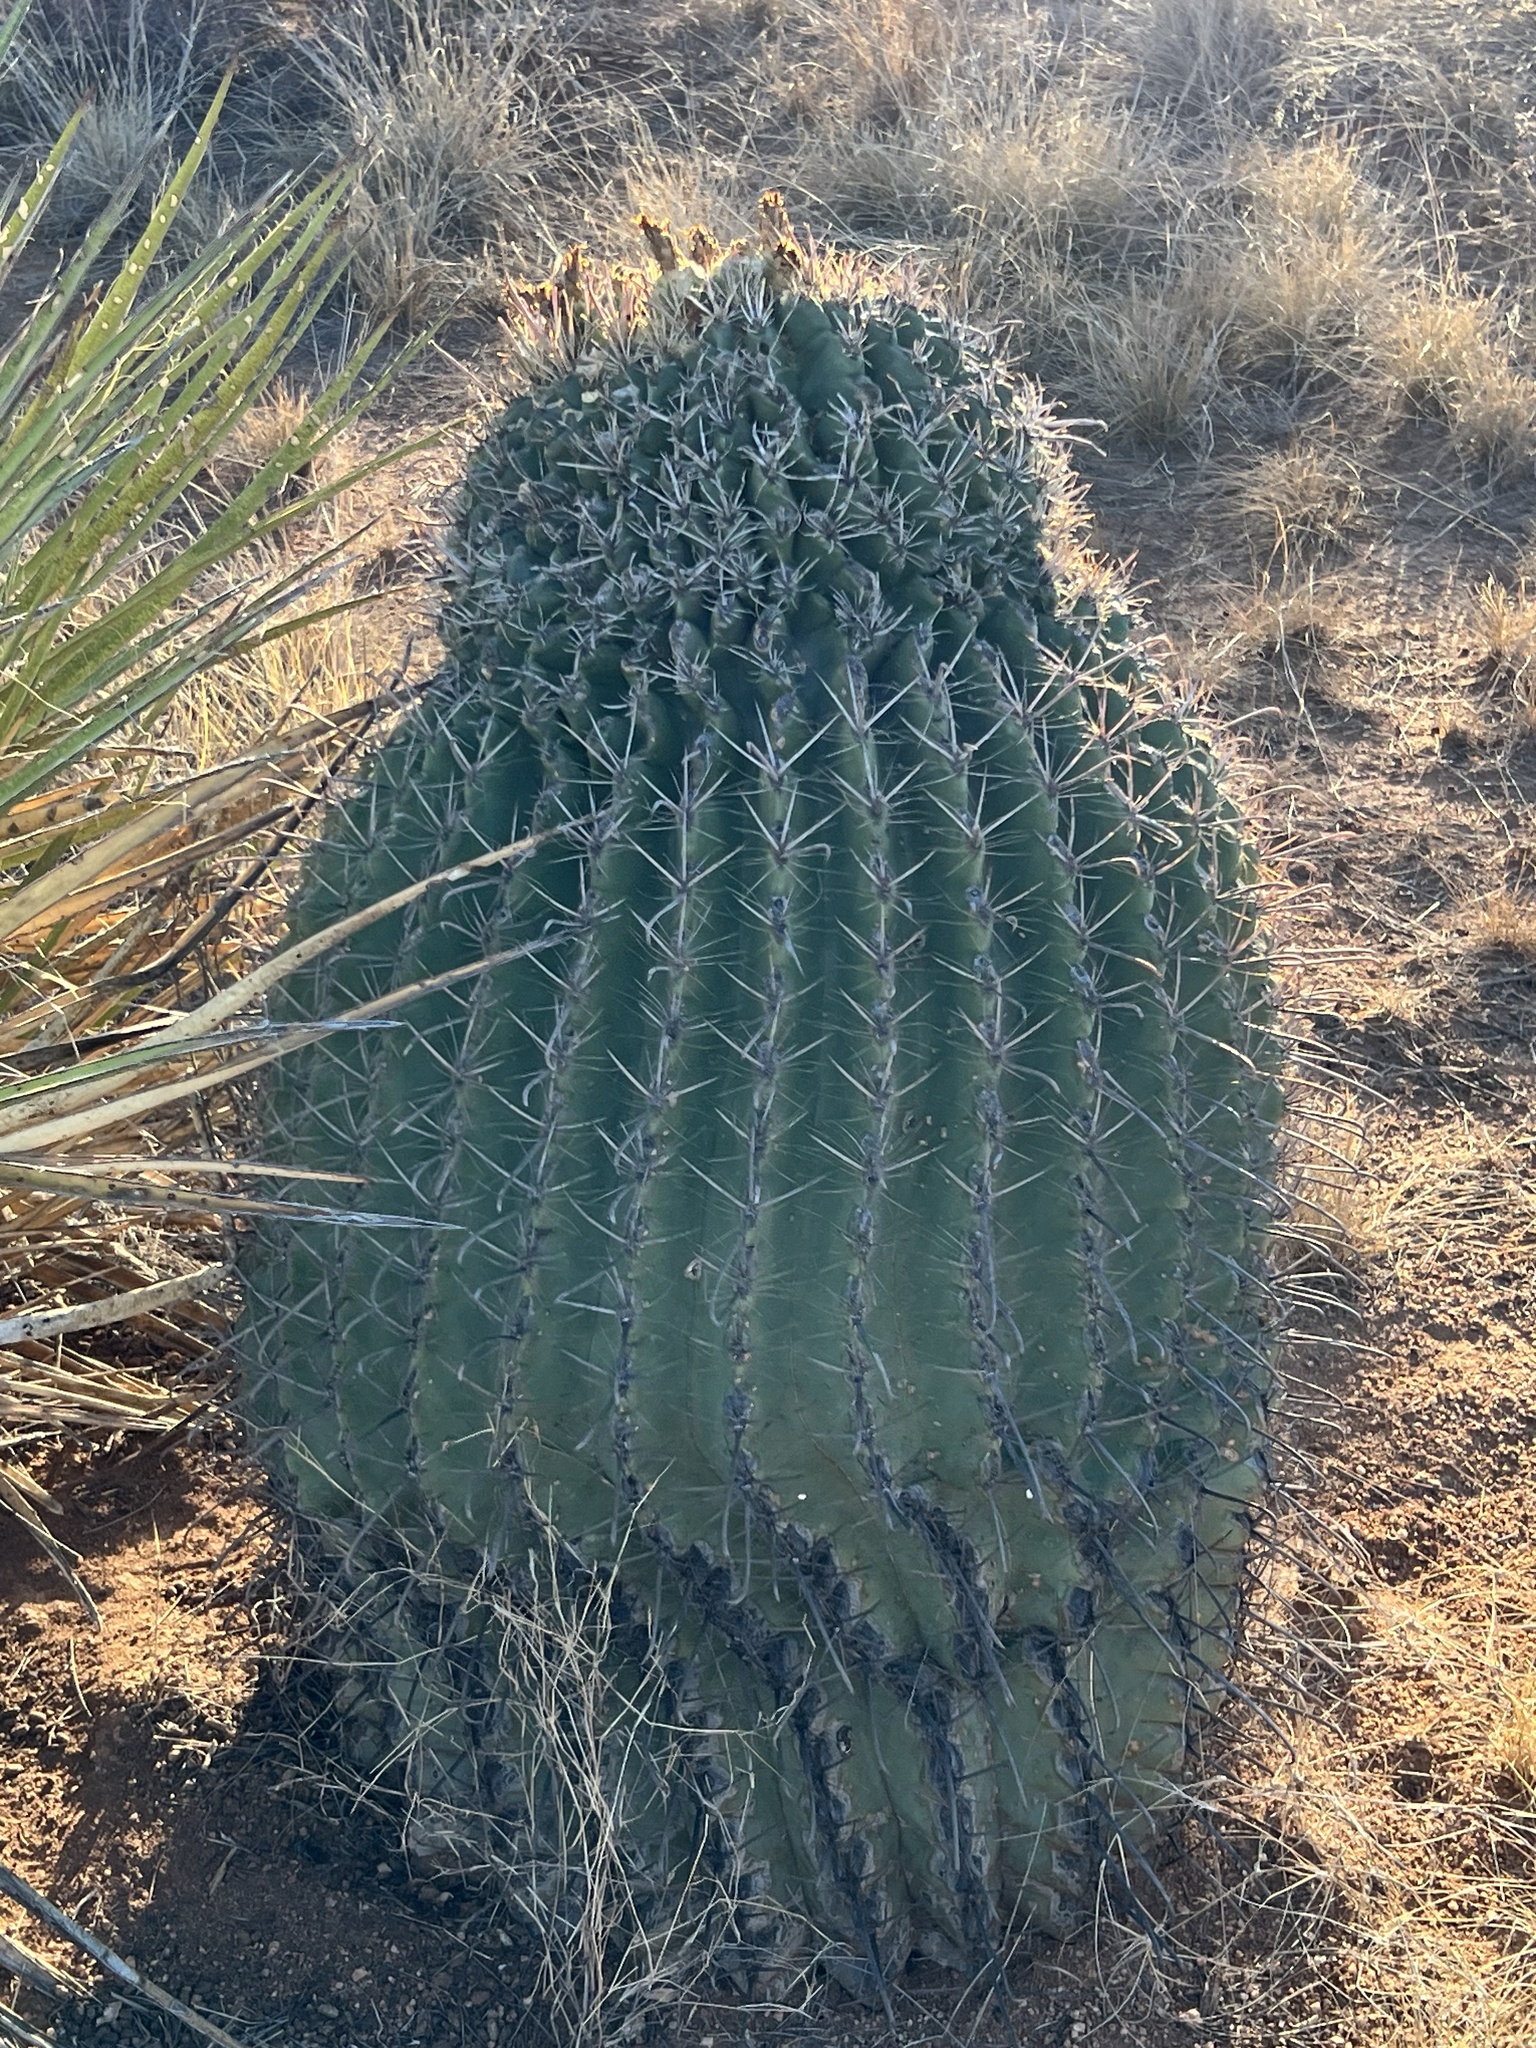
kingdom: Plantae
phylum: Tracheophyta
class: Magnoliopsida
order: Caryophyllales
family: Cactaceae
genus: Ferocactus
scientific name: Ferocactus wislizeni
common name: Candy barrel cactus
